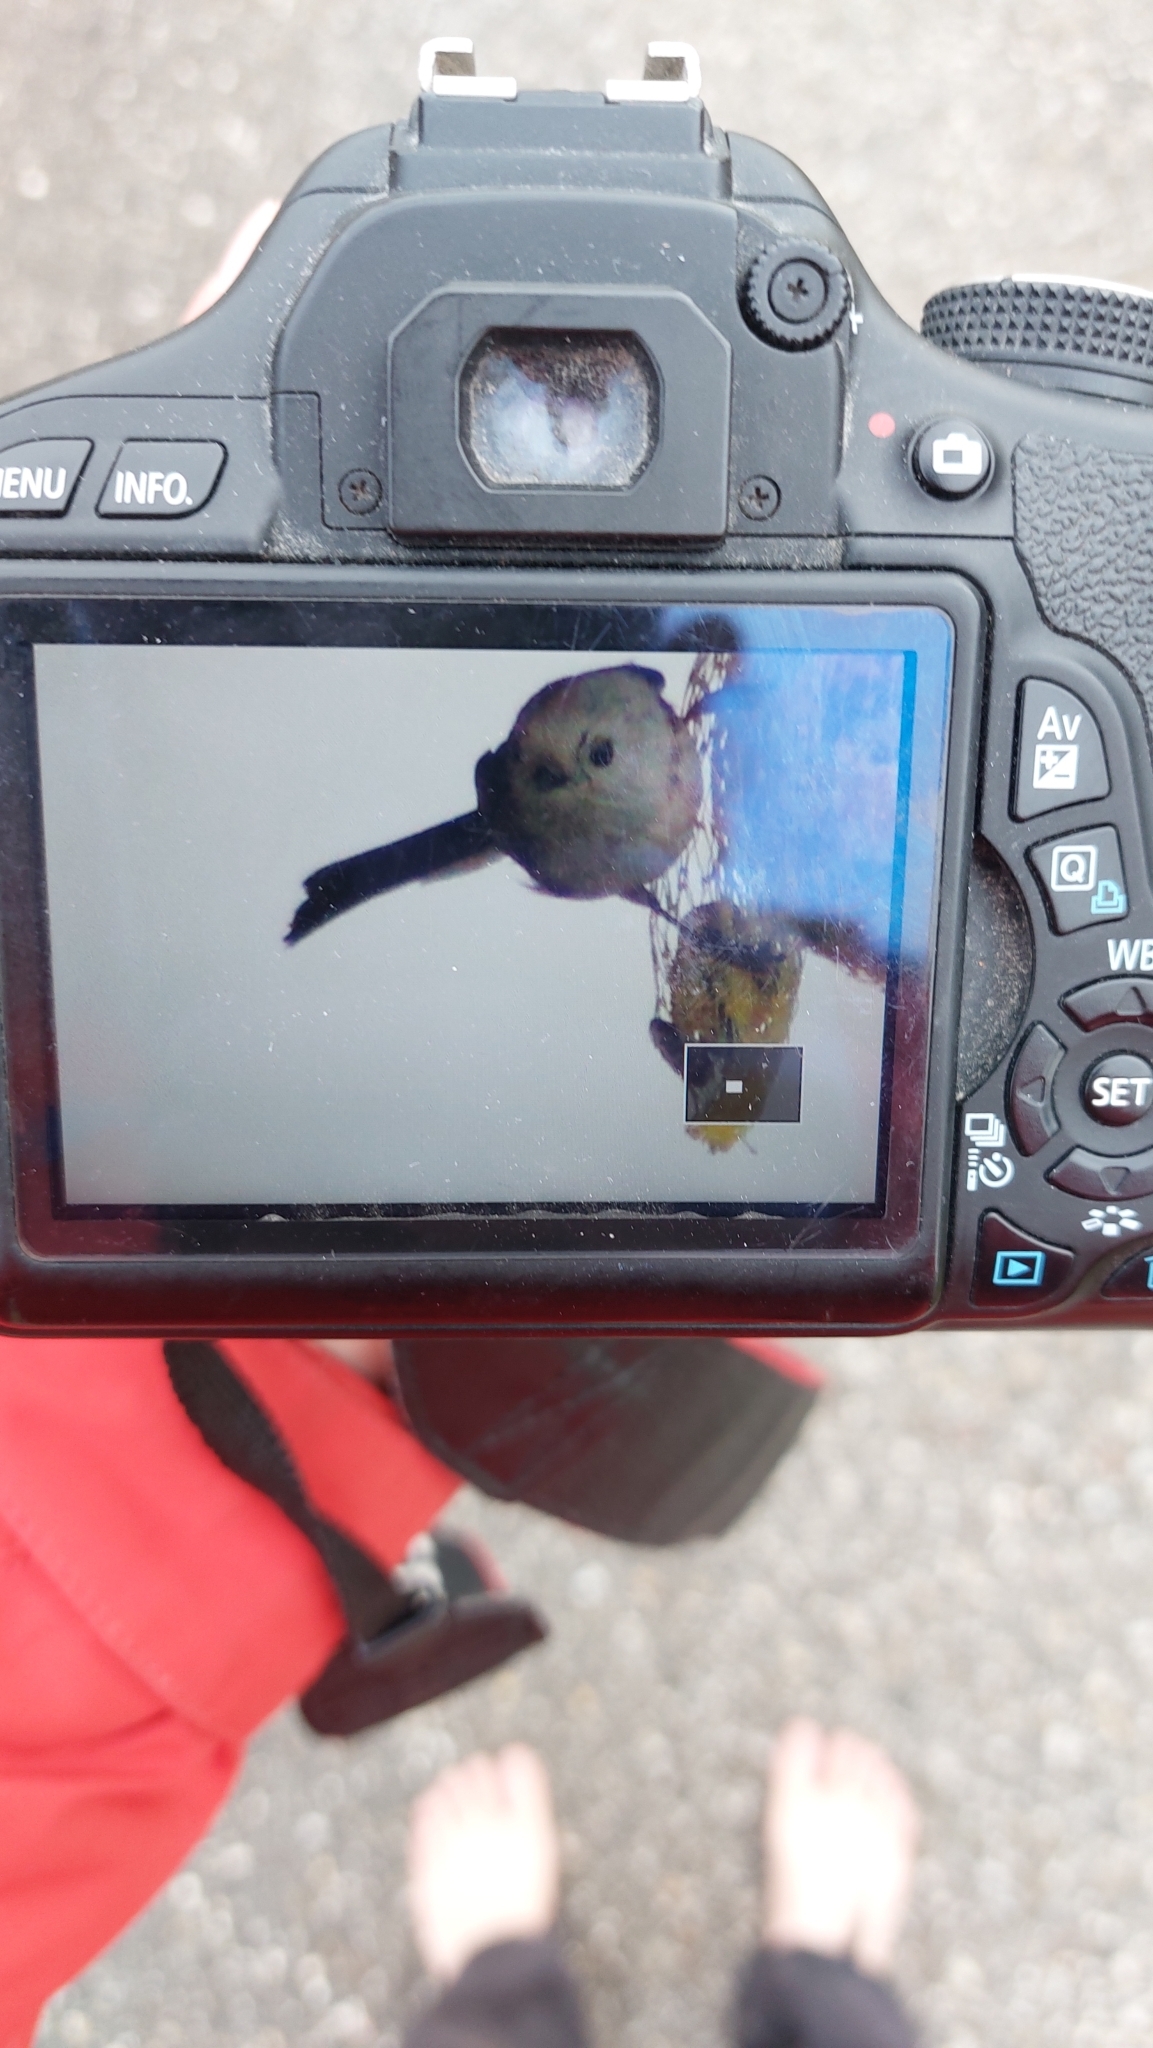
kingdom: Animalia
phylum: Chordata
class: Aves
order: Passeriformes
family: Aegithalidae
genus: Aegithalos
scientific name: Aegithalos caudatus
